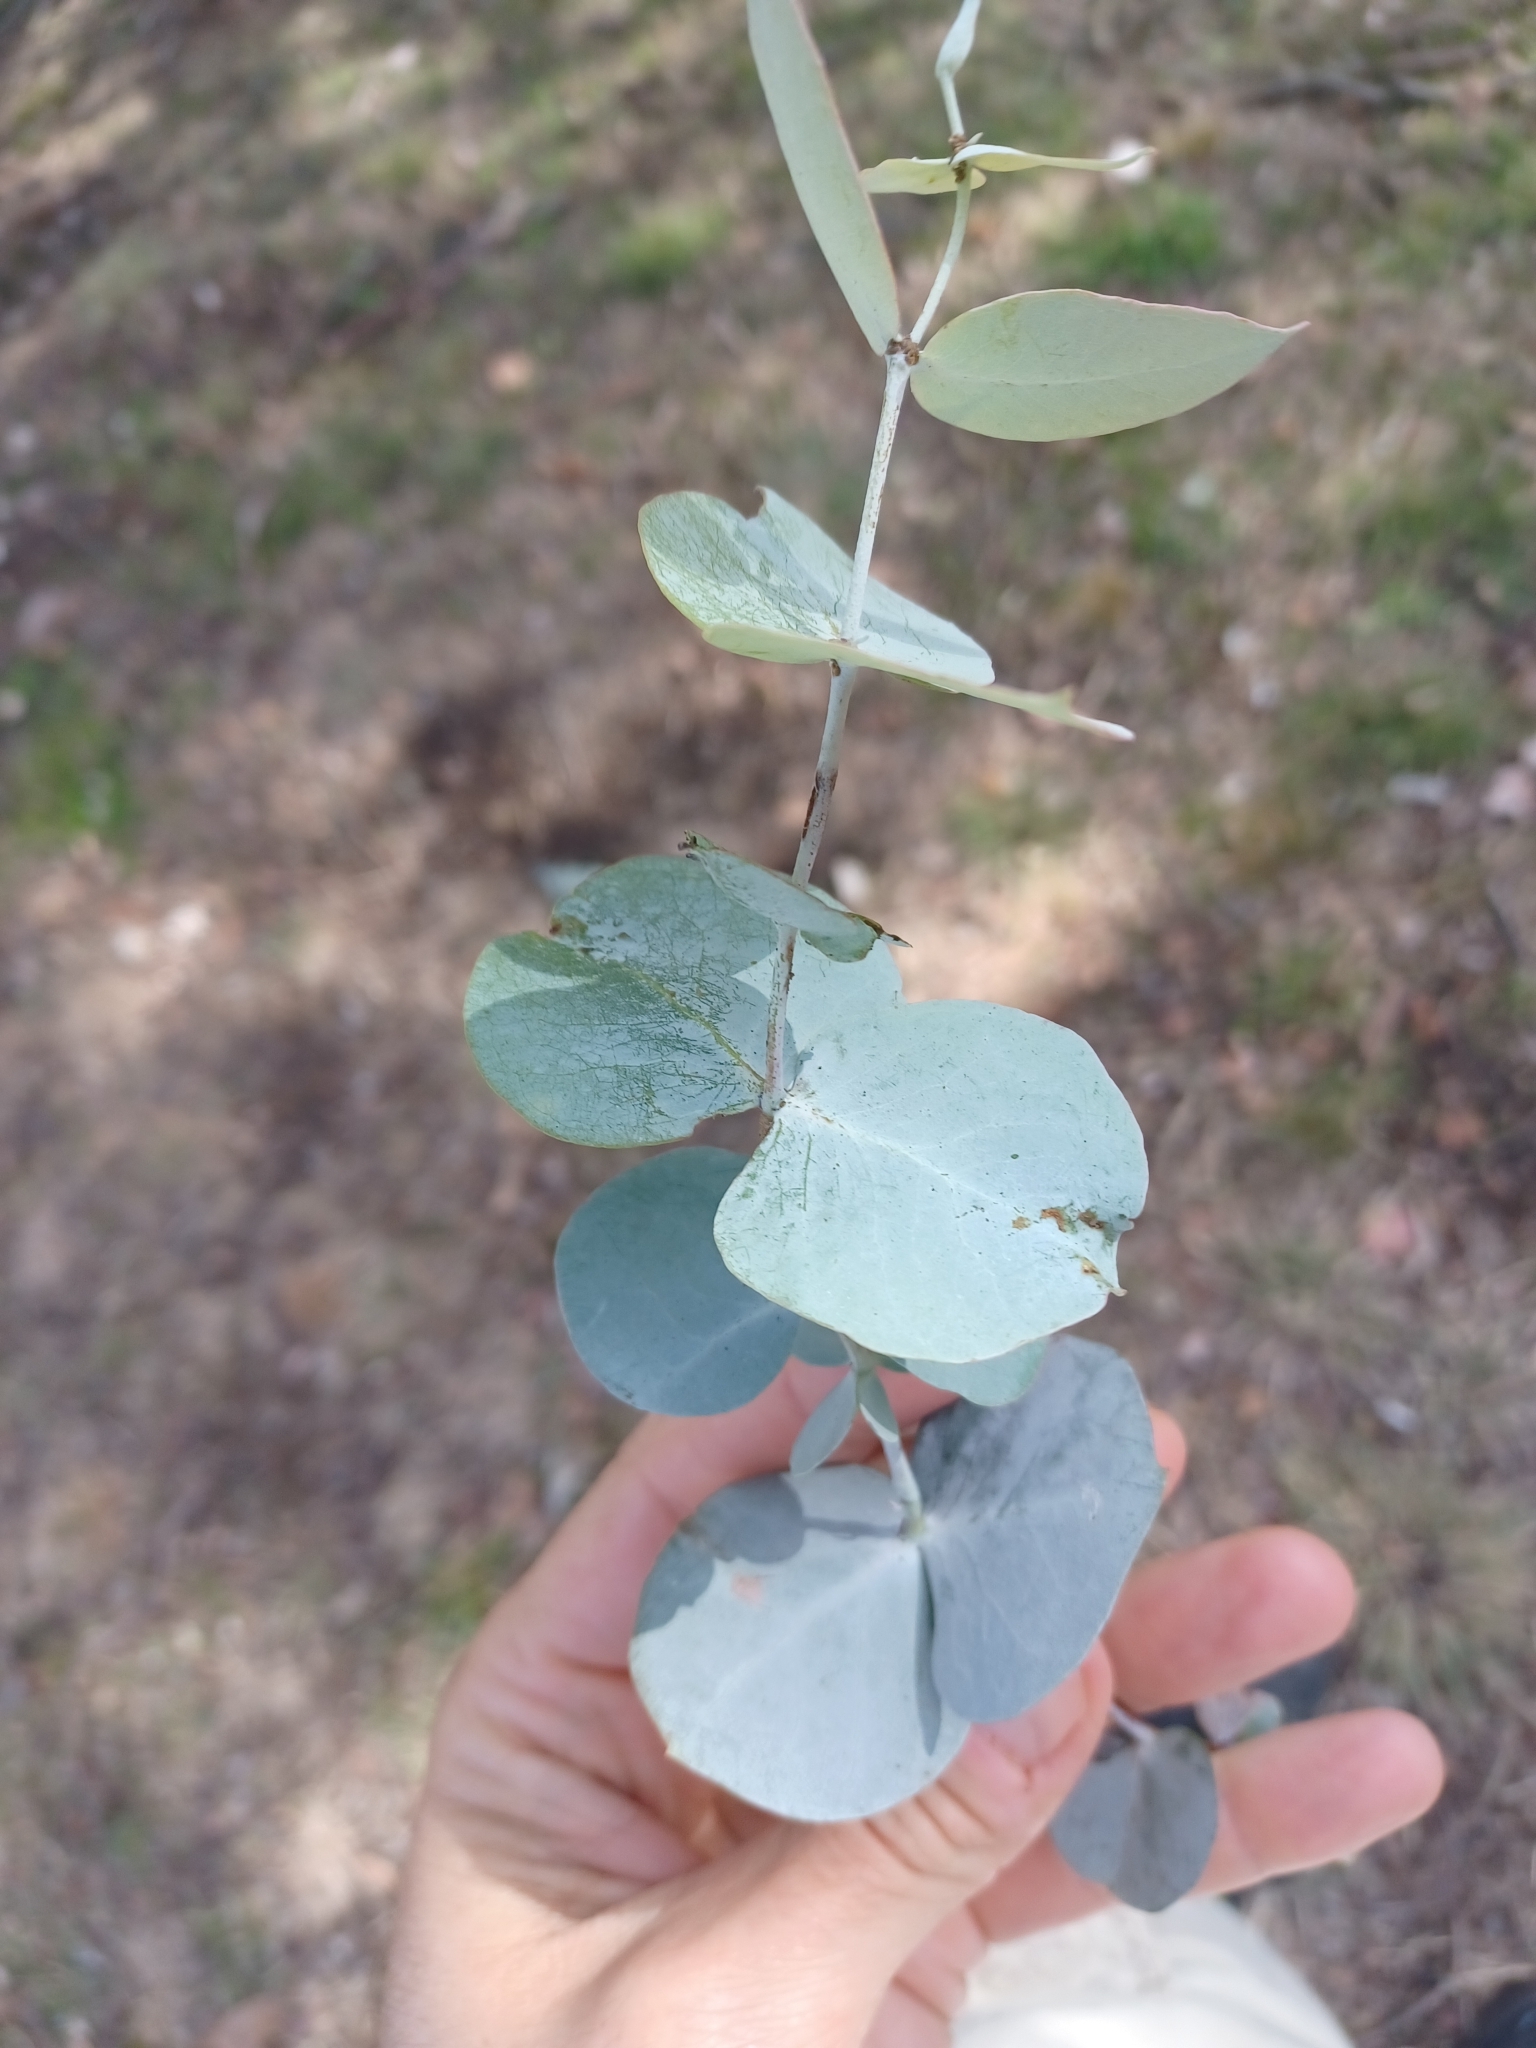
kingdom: Plantae
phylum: Tracheophyta
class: Magnoliopsida
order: Myrtales
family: Myrtaceae
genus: Eucalyptus
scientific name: Eucalyptus cinerea
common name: Argyle apple
